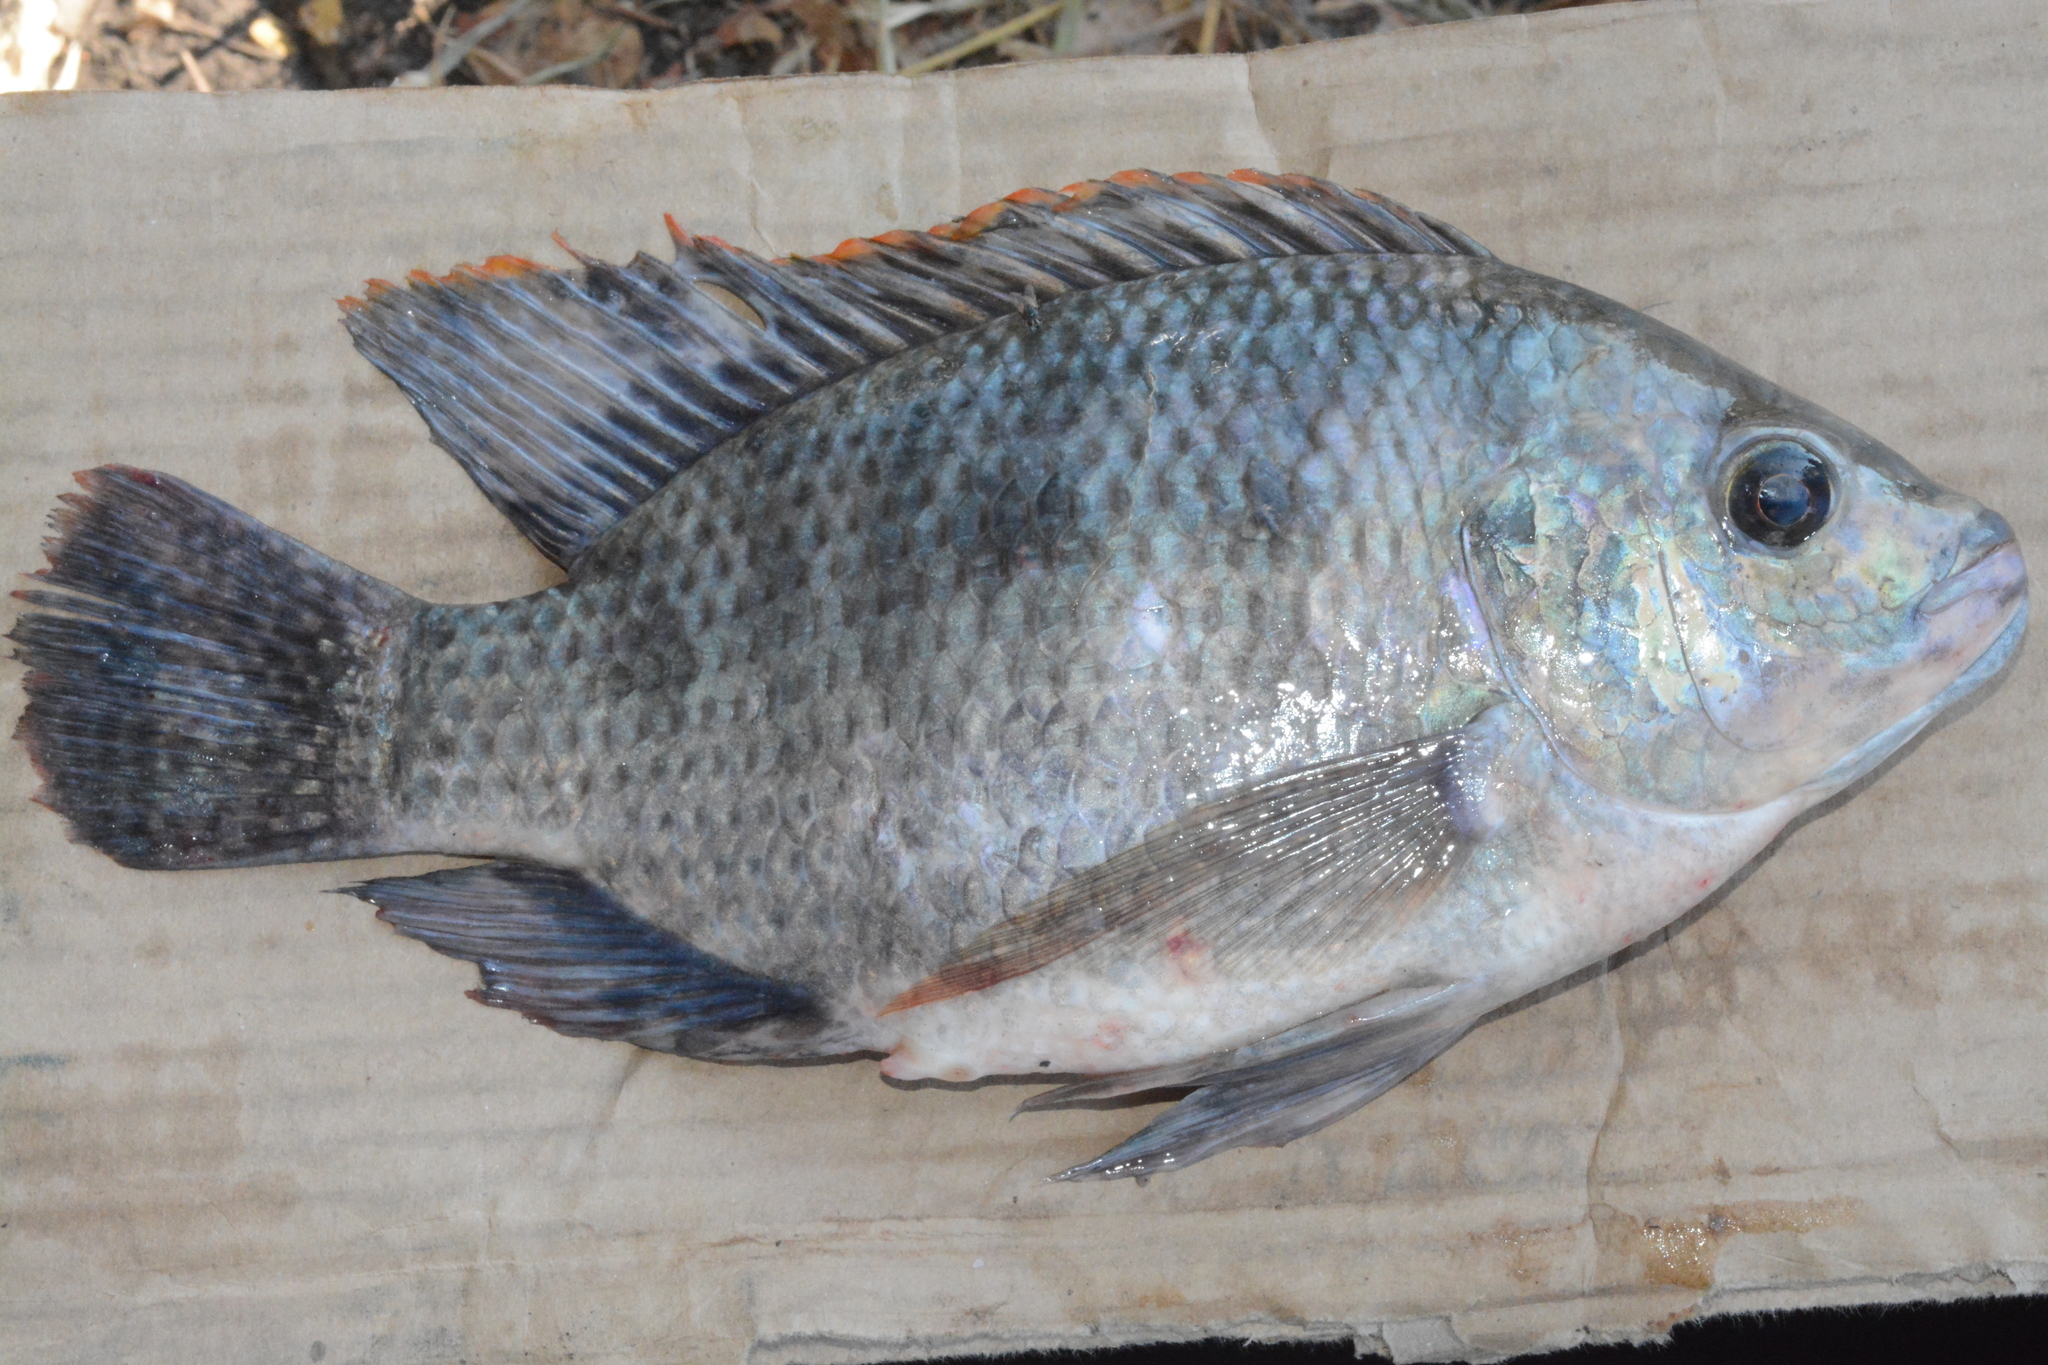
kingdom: Animalia
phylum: Chordata
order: Perciformes
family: Cichlidae
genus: Oreochromis
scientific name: Oreochromis upembae
